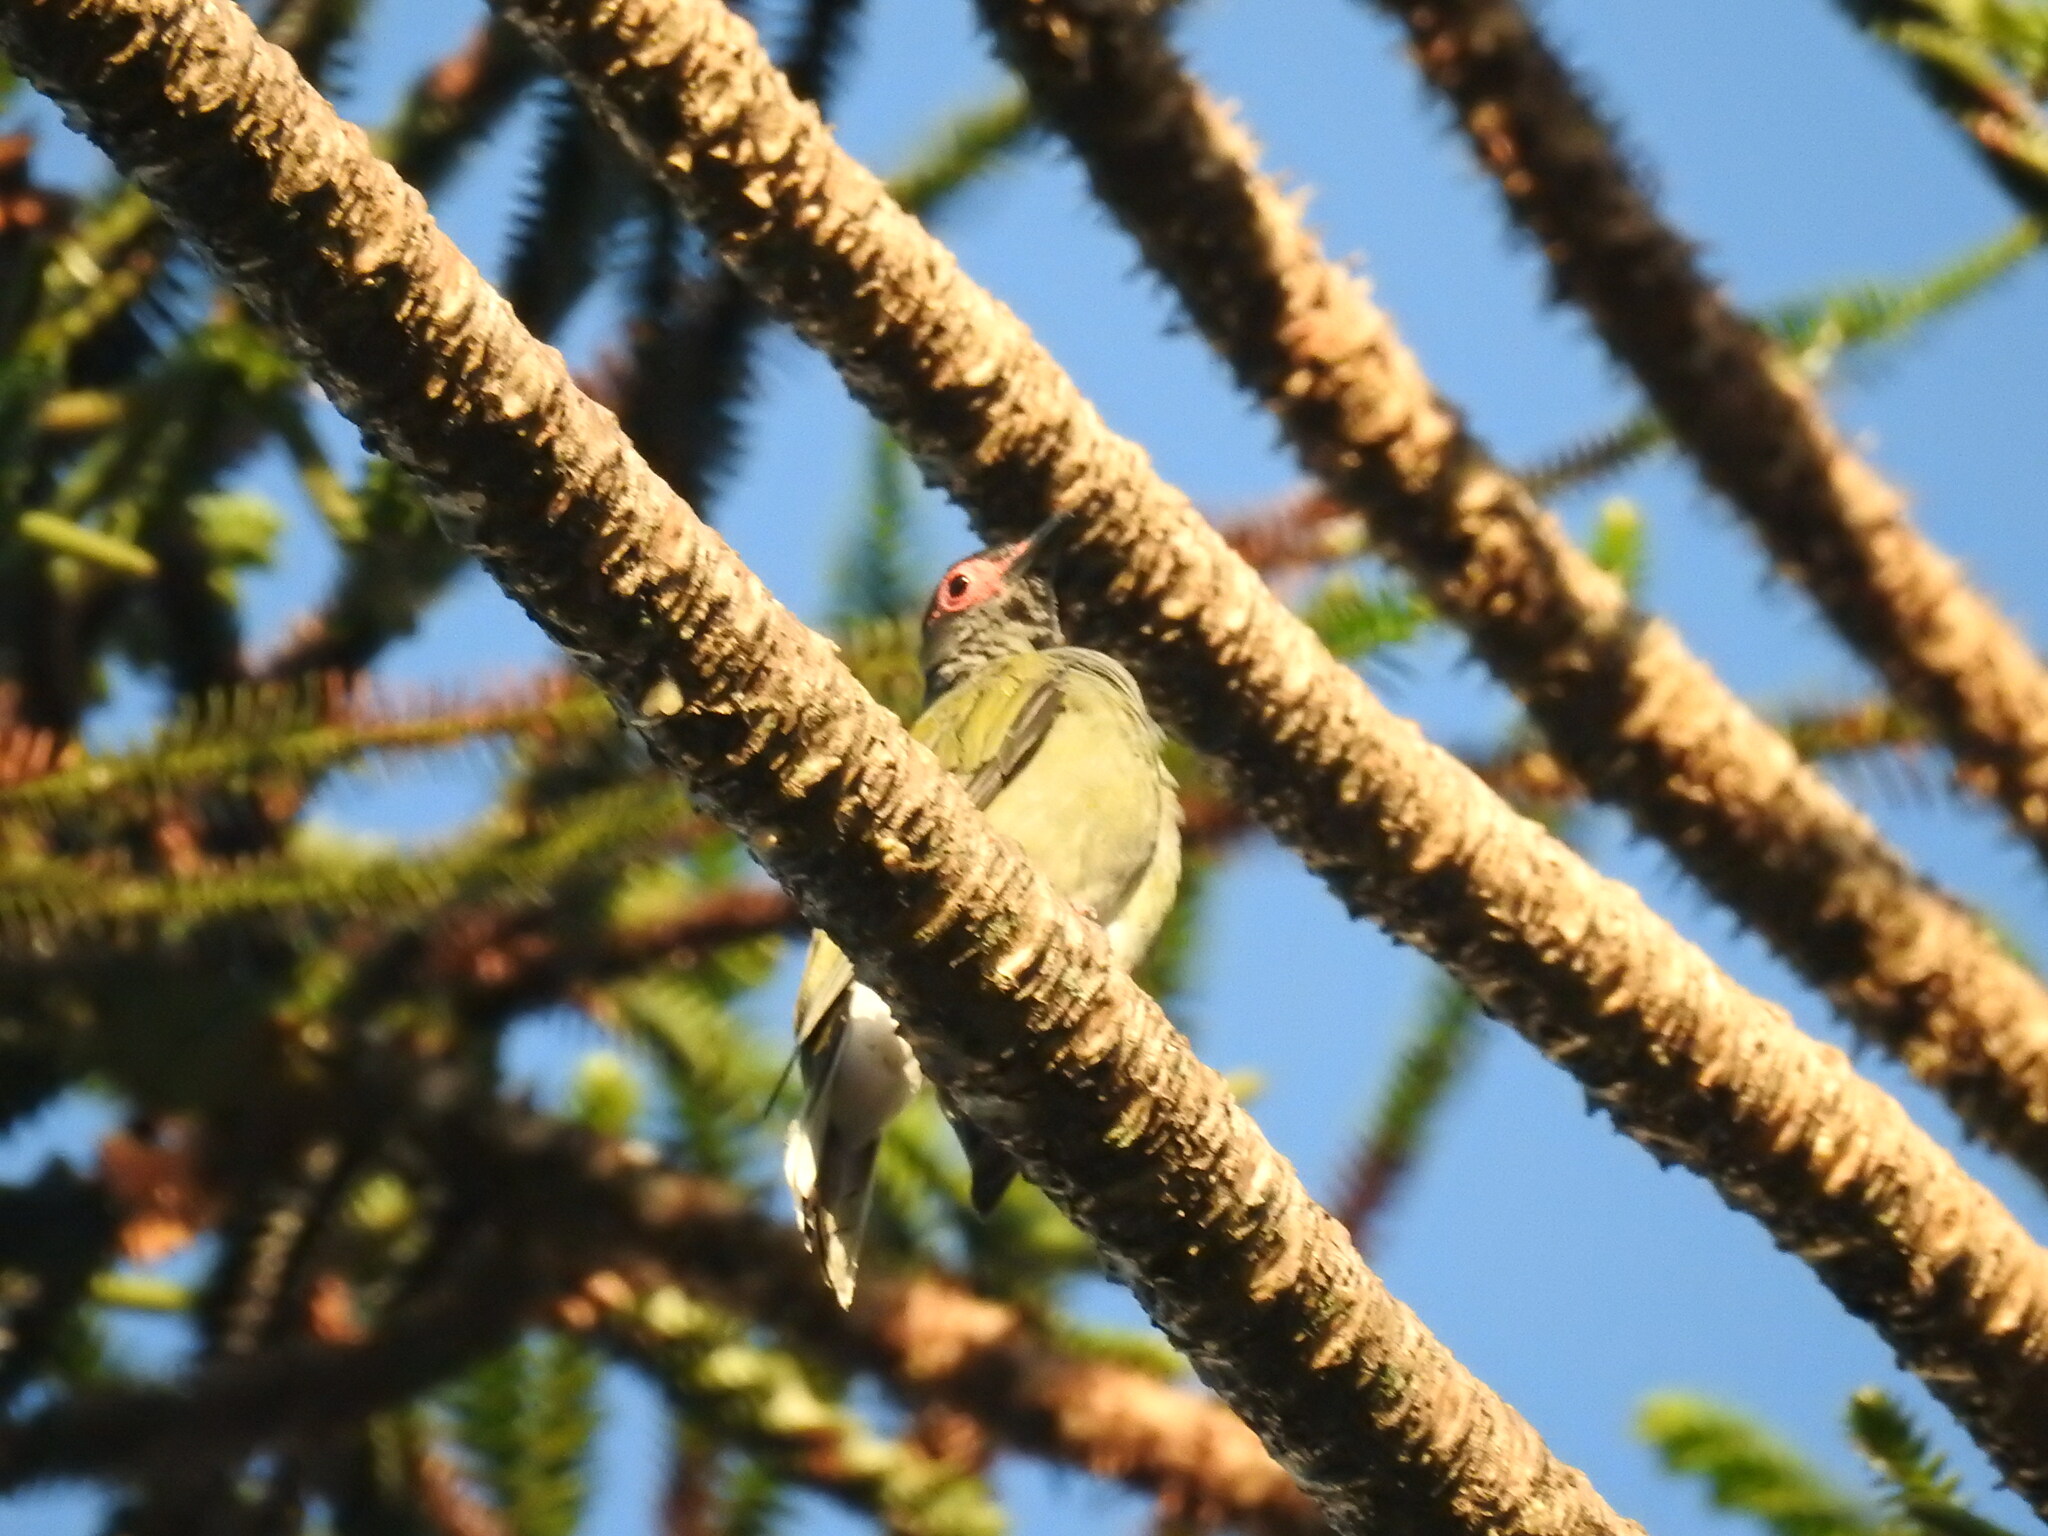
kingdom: Animalia
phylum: Chordata
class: Aves
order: Passeriformes
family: Oriolidae
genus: Sphecotheres
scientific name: Sphecotheres vieilloti
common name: Australasian figbird
